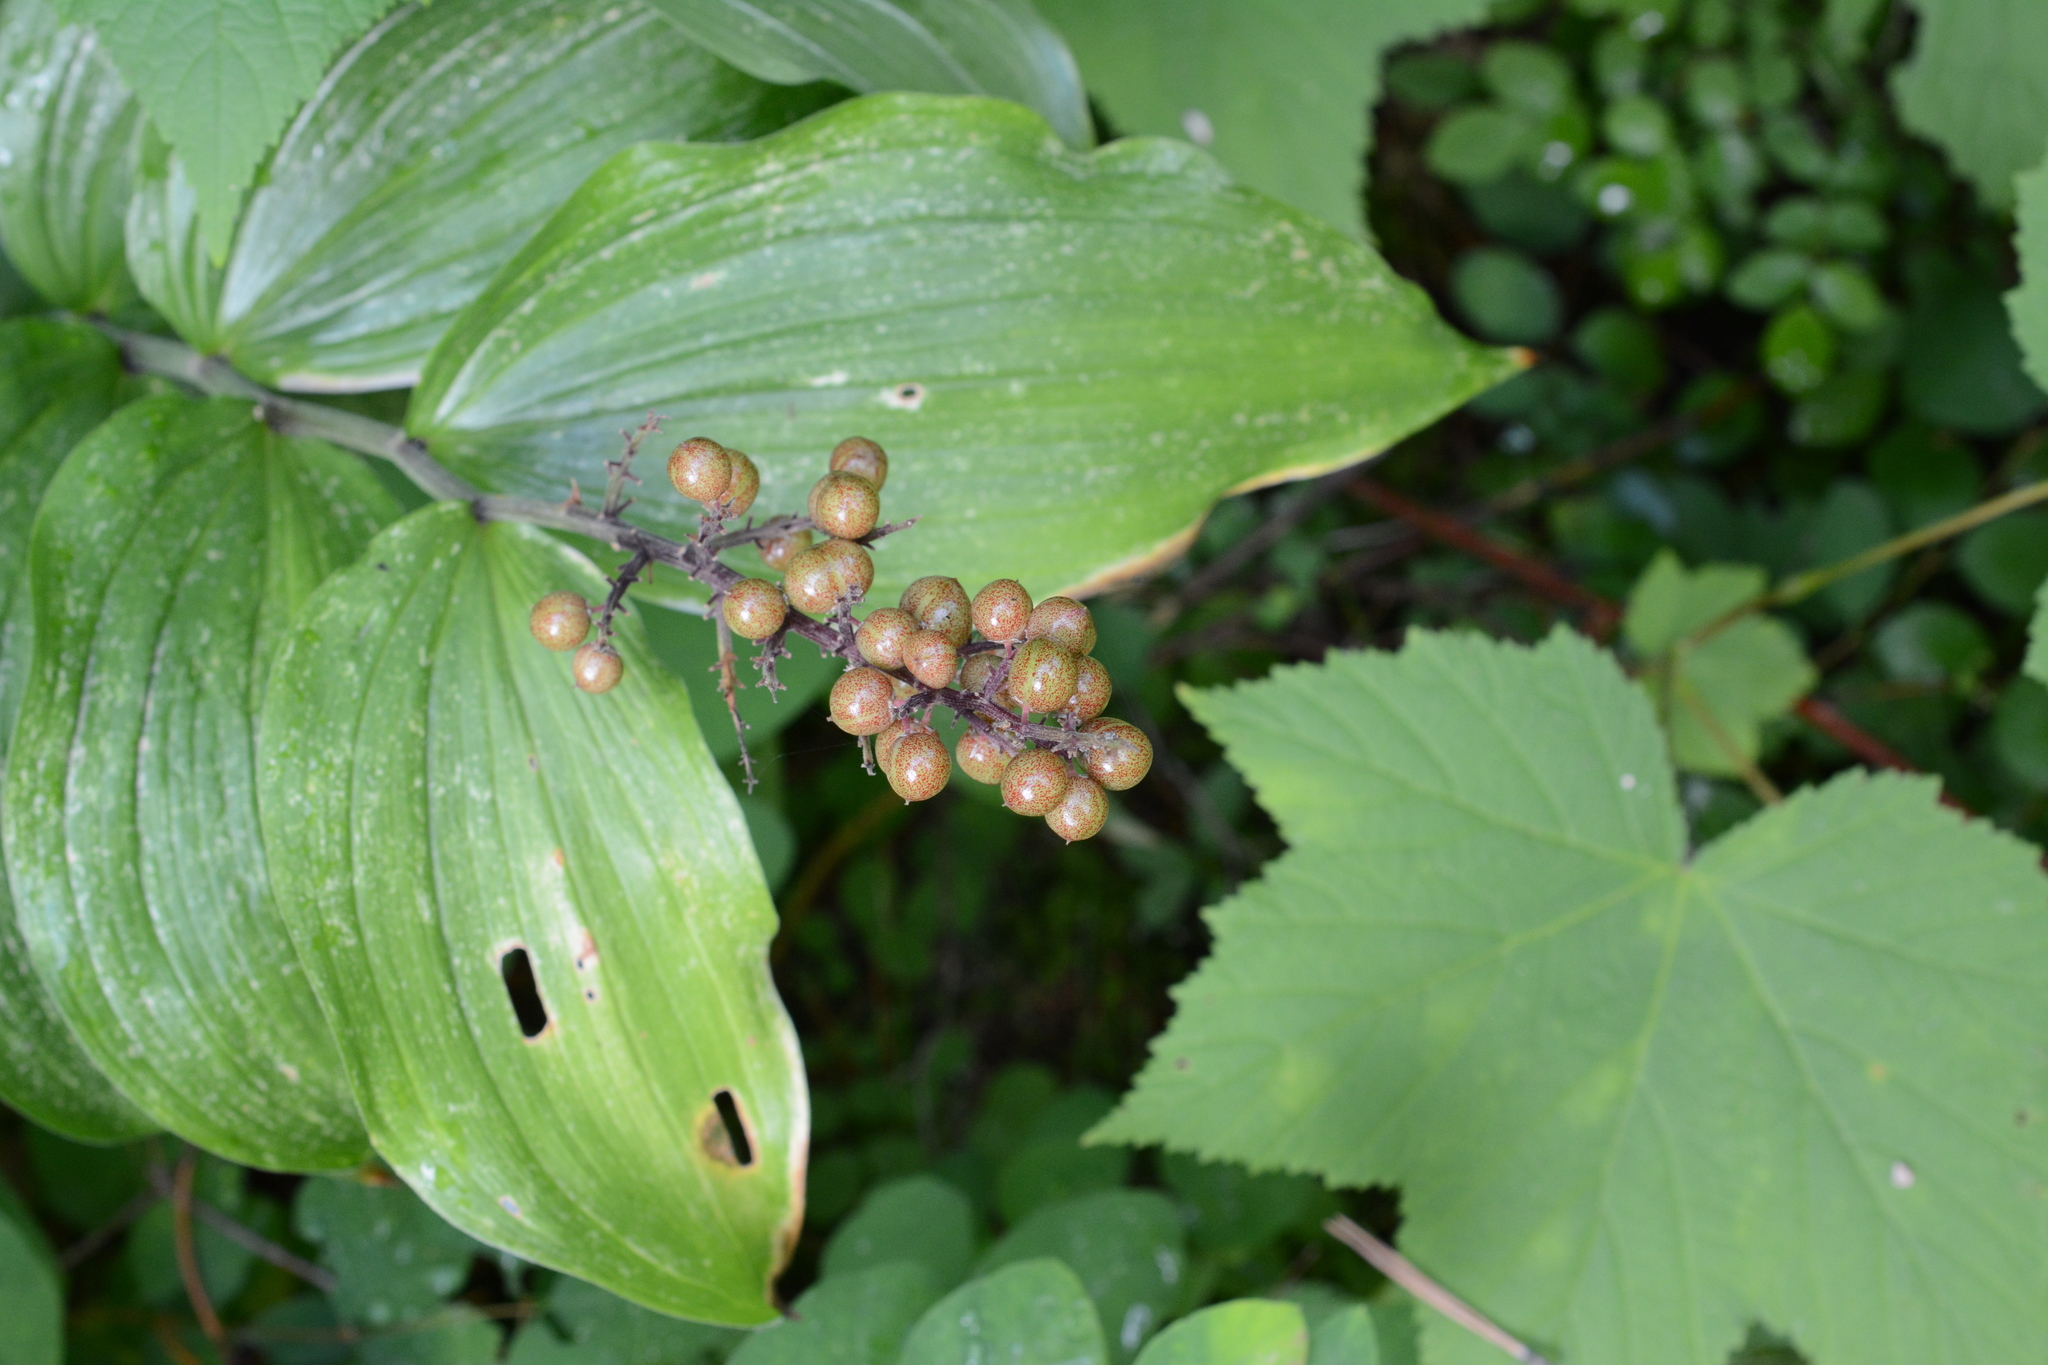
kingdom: Plantae
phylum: Tracheophyta
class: Liliopsida
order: Asparagales
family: Asparagaceae
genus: Maianthemum
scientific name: Maianthemum racemosum
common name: False spikenard
